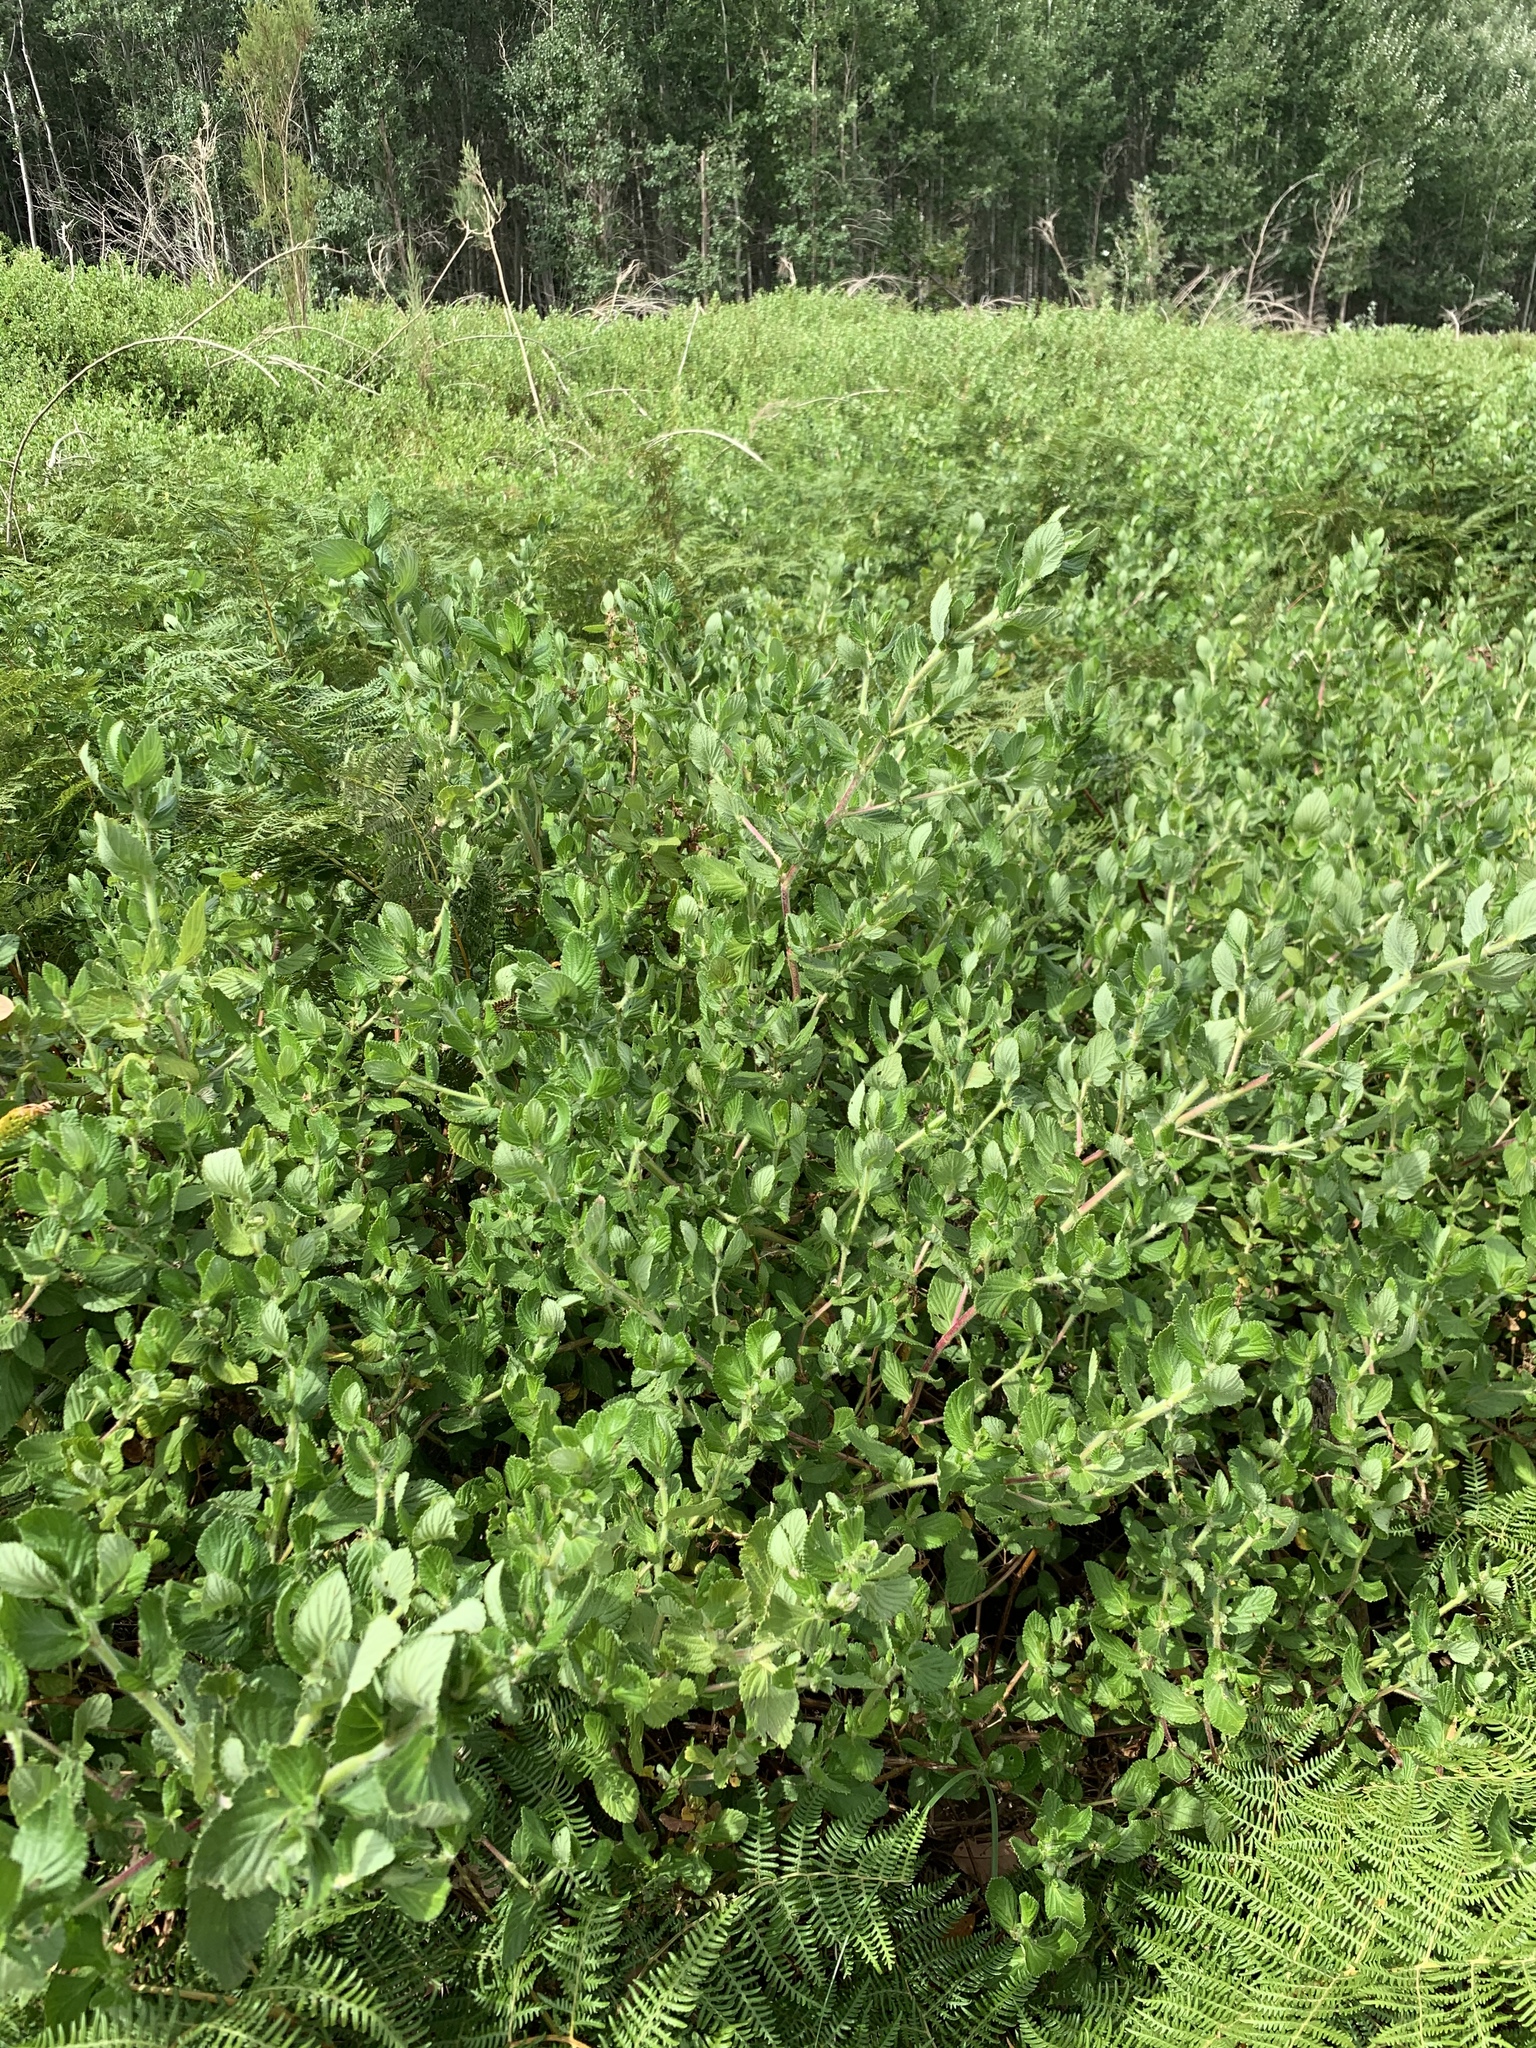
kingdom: Plantae
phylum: Tracheophyta
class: Magnoliopsida
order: Rosales
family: Rosaceae
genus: Cliffortia
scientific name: Cliffortia odorata
